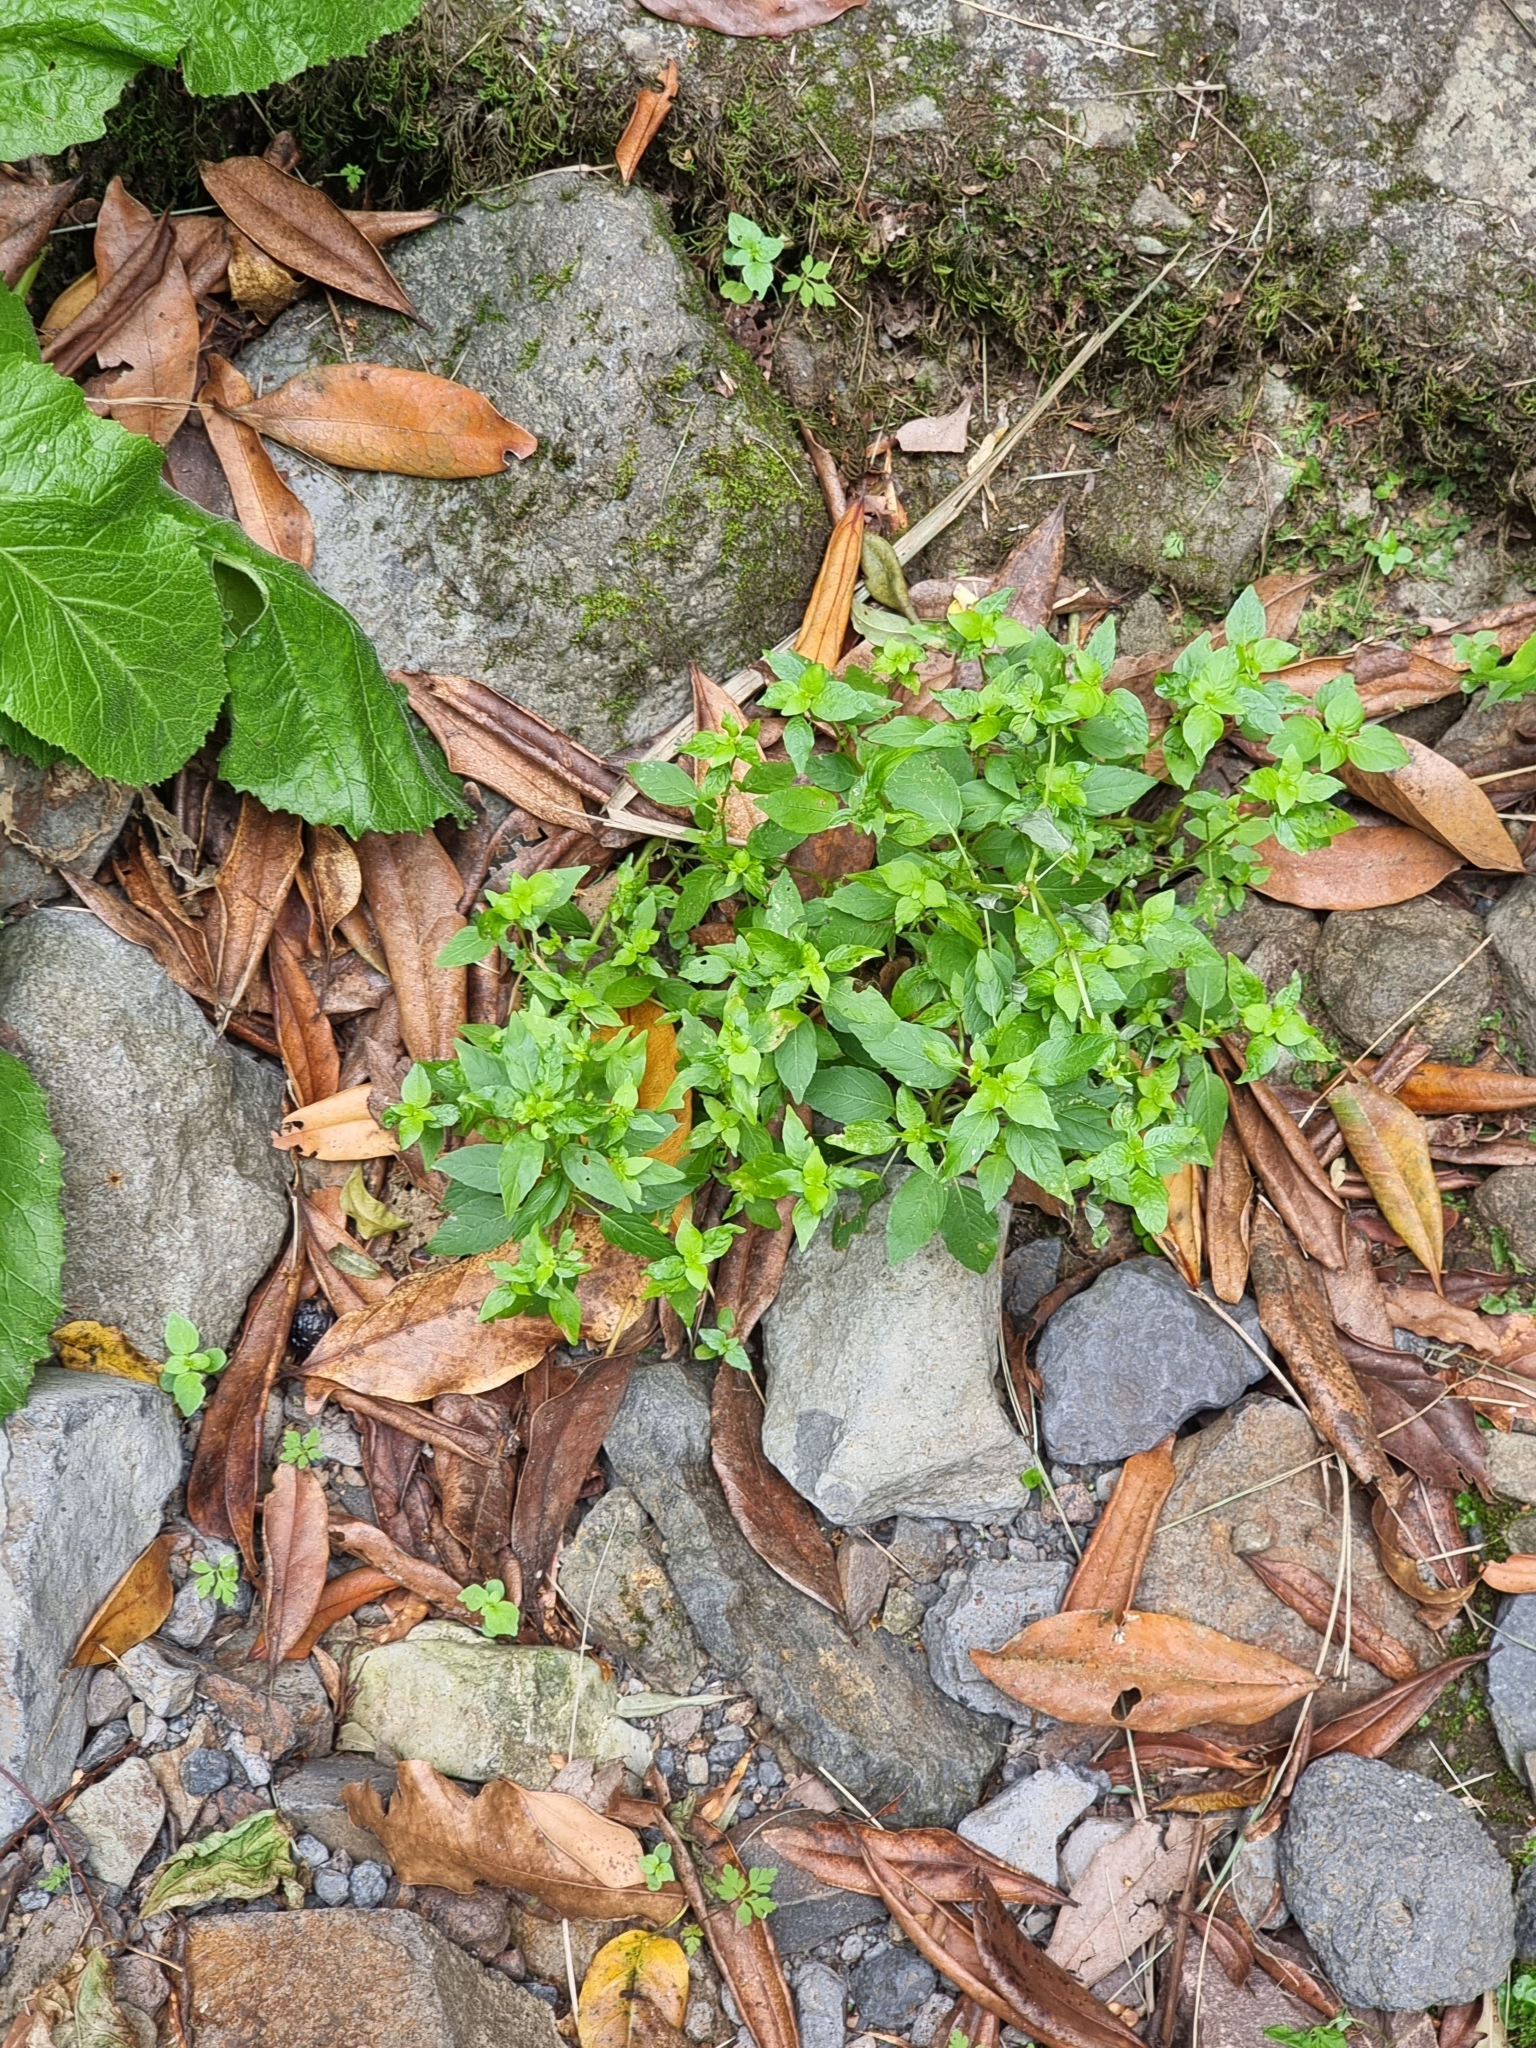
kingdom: Plantae
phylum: Tracheophyta
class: Magnoliopsida
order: Malpighiales
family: Euphorbiaceae
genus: Mercurialis
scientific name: Mercurialis annua
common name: Annual mercury
